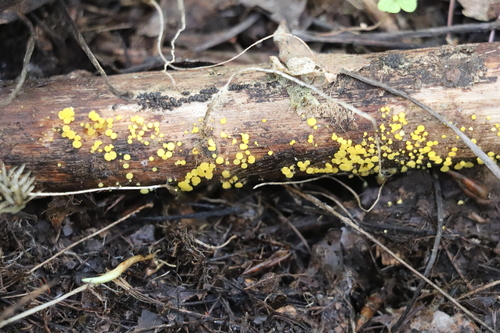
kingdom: Fungi
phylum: Ascomycota
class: Leotiomycetes
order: Helotiales
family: Pezizellaceae
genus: Calycina
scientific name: Calycina citrina
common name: Yellow fairy cups
